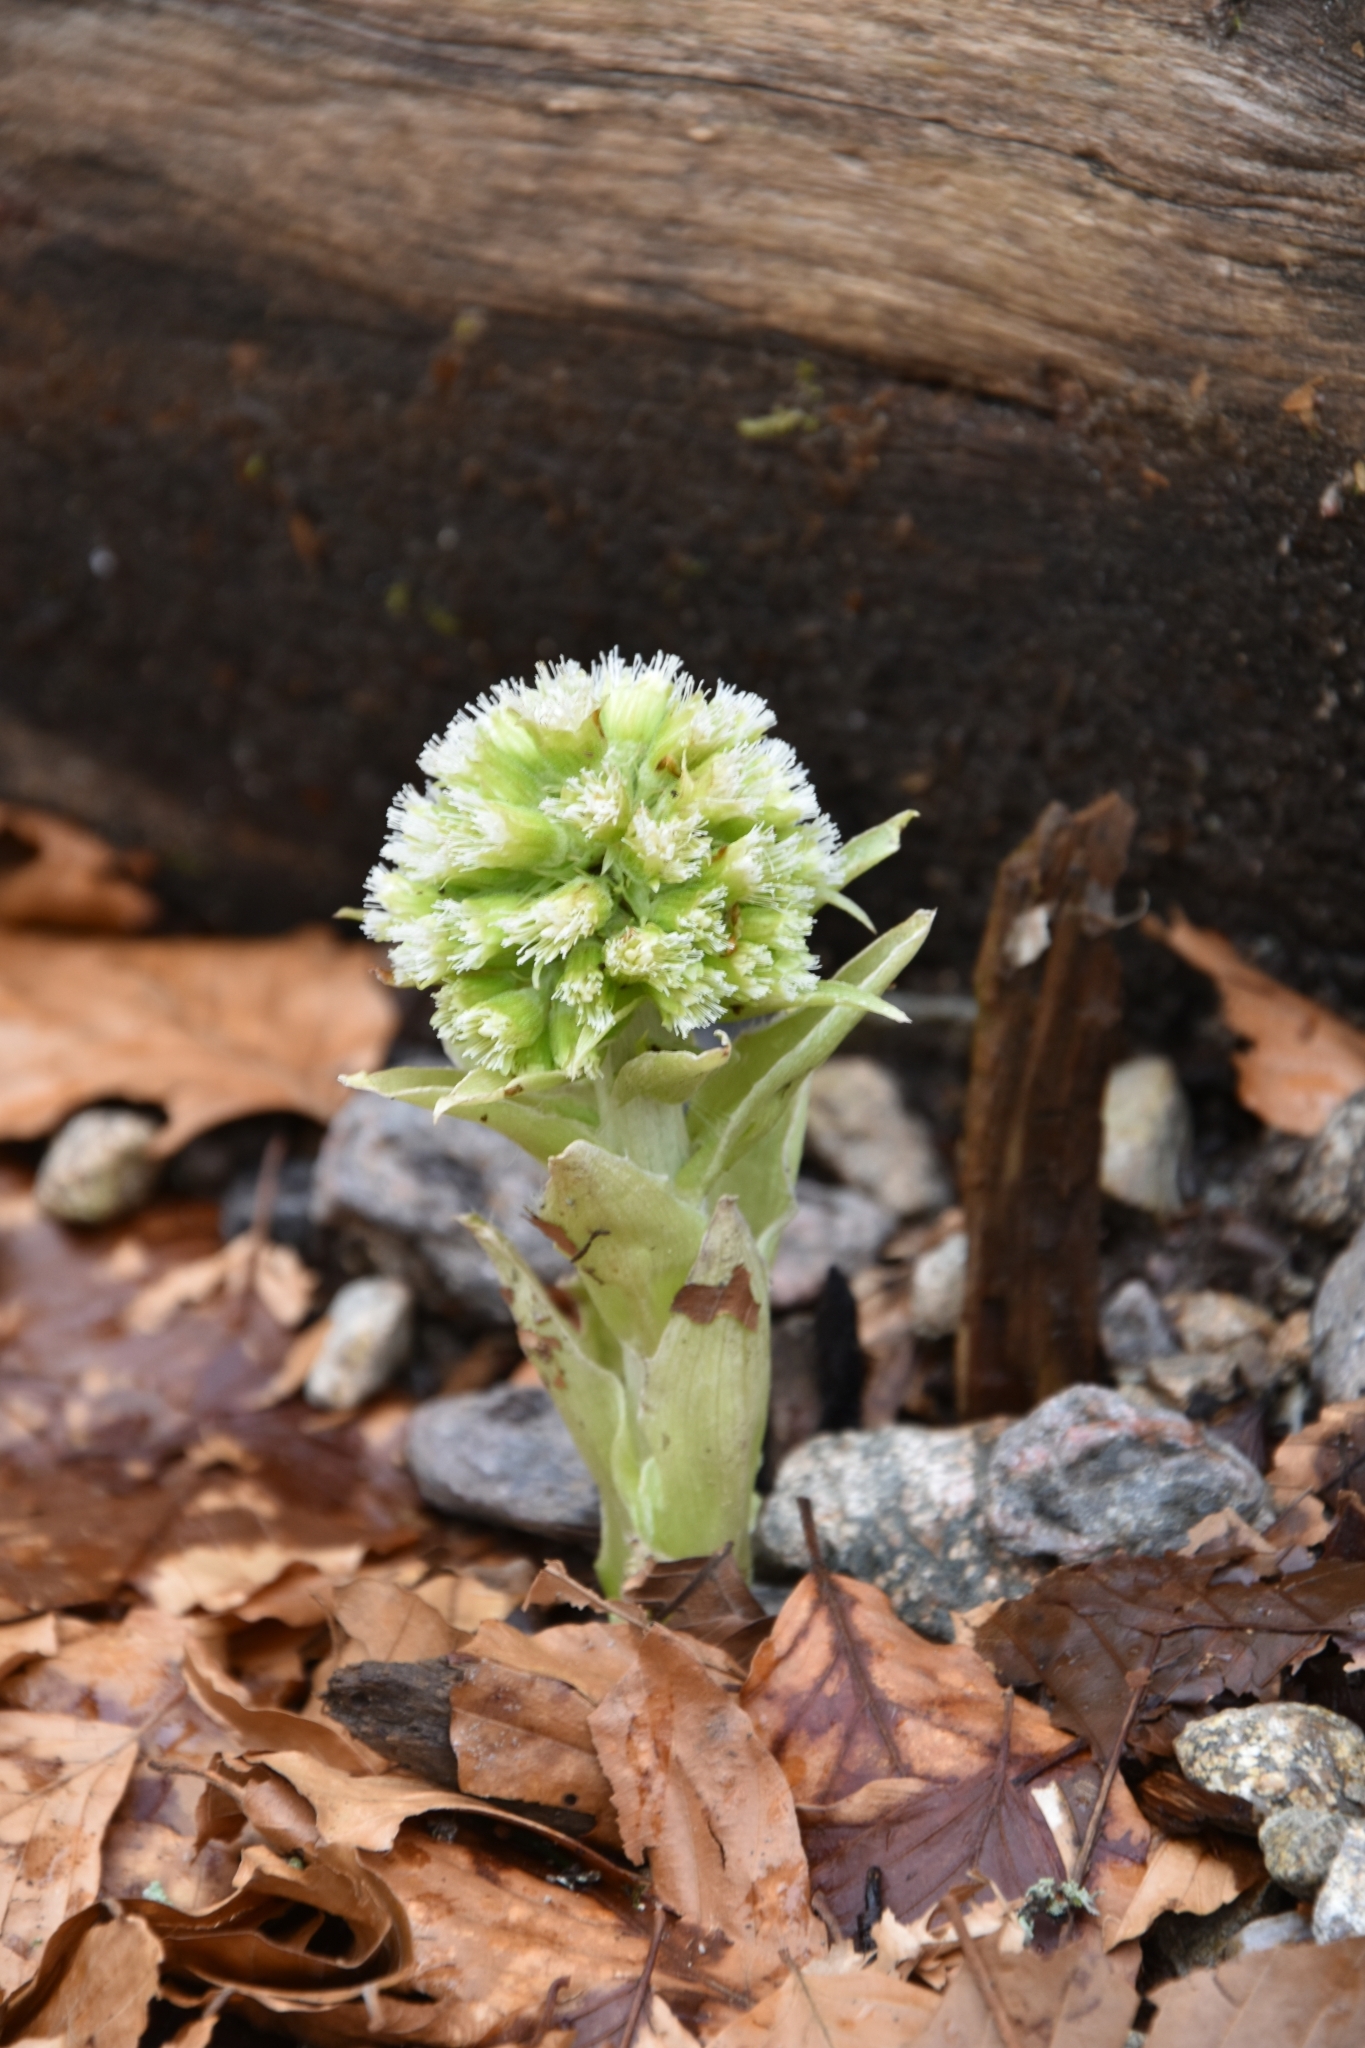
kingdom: Plantae
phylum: Tracheophyta
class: Magnoliopsida
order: Asterales
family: Asteraceae
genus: Petasites
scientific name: Petasites albus
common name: White butterbur
